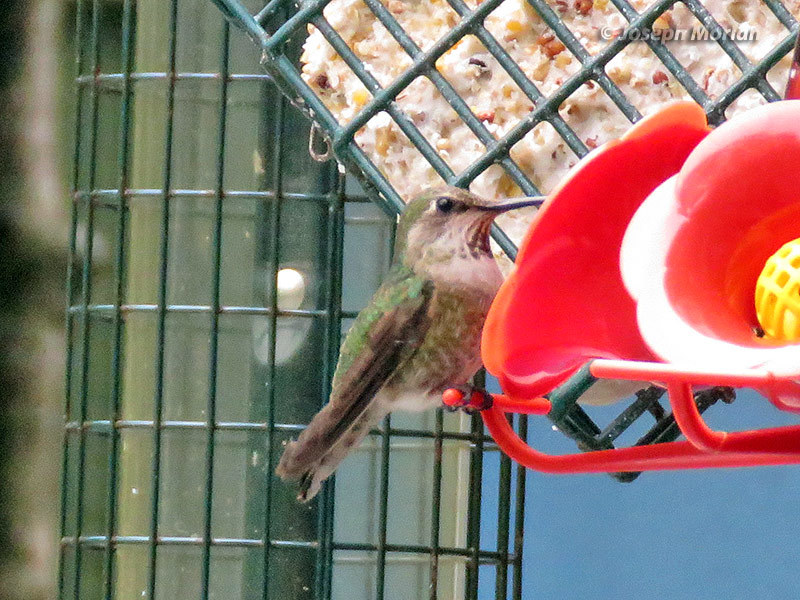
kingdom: Animalia
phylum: Chordata
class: Aves
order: Apodiformes
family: Trochilidae
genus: Calypte
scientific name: Calypte anna
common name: Anna's hummingbird
